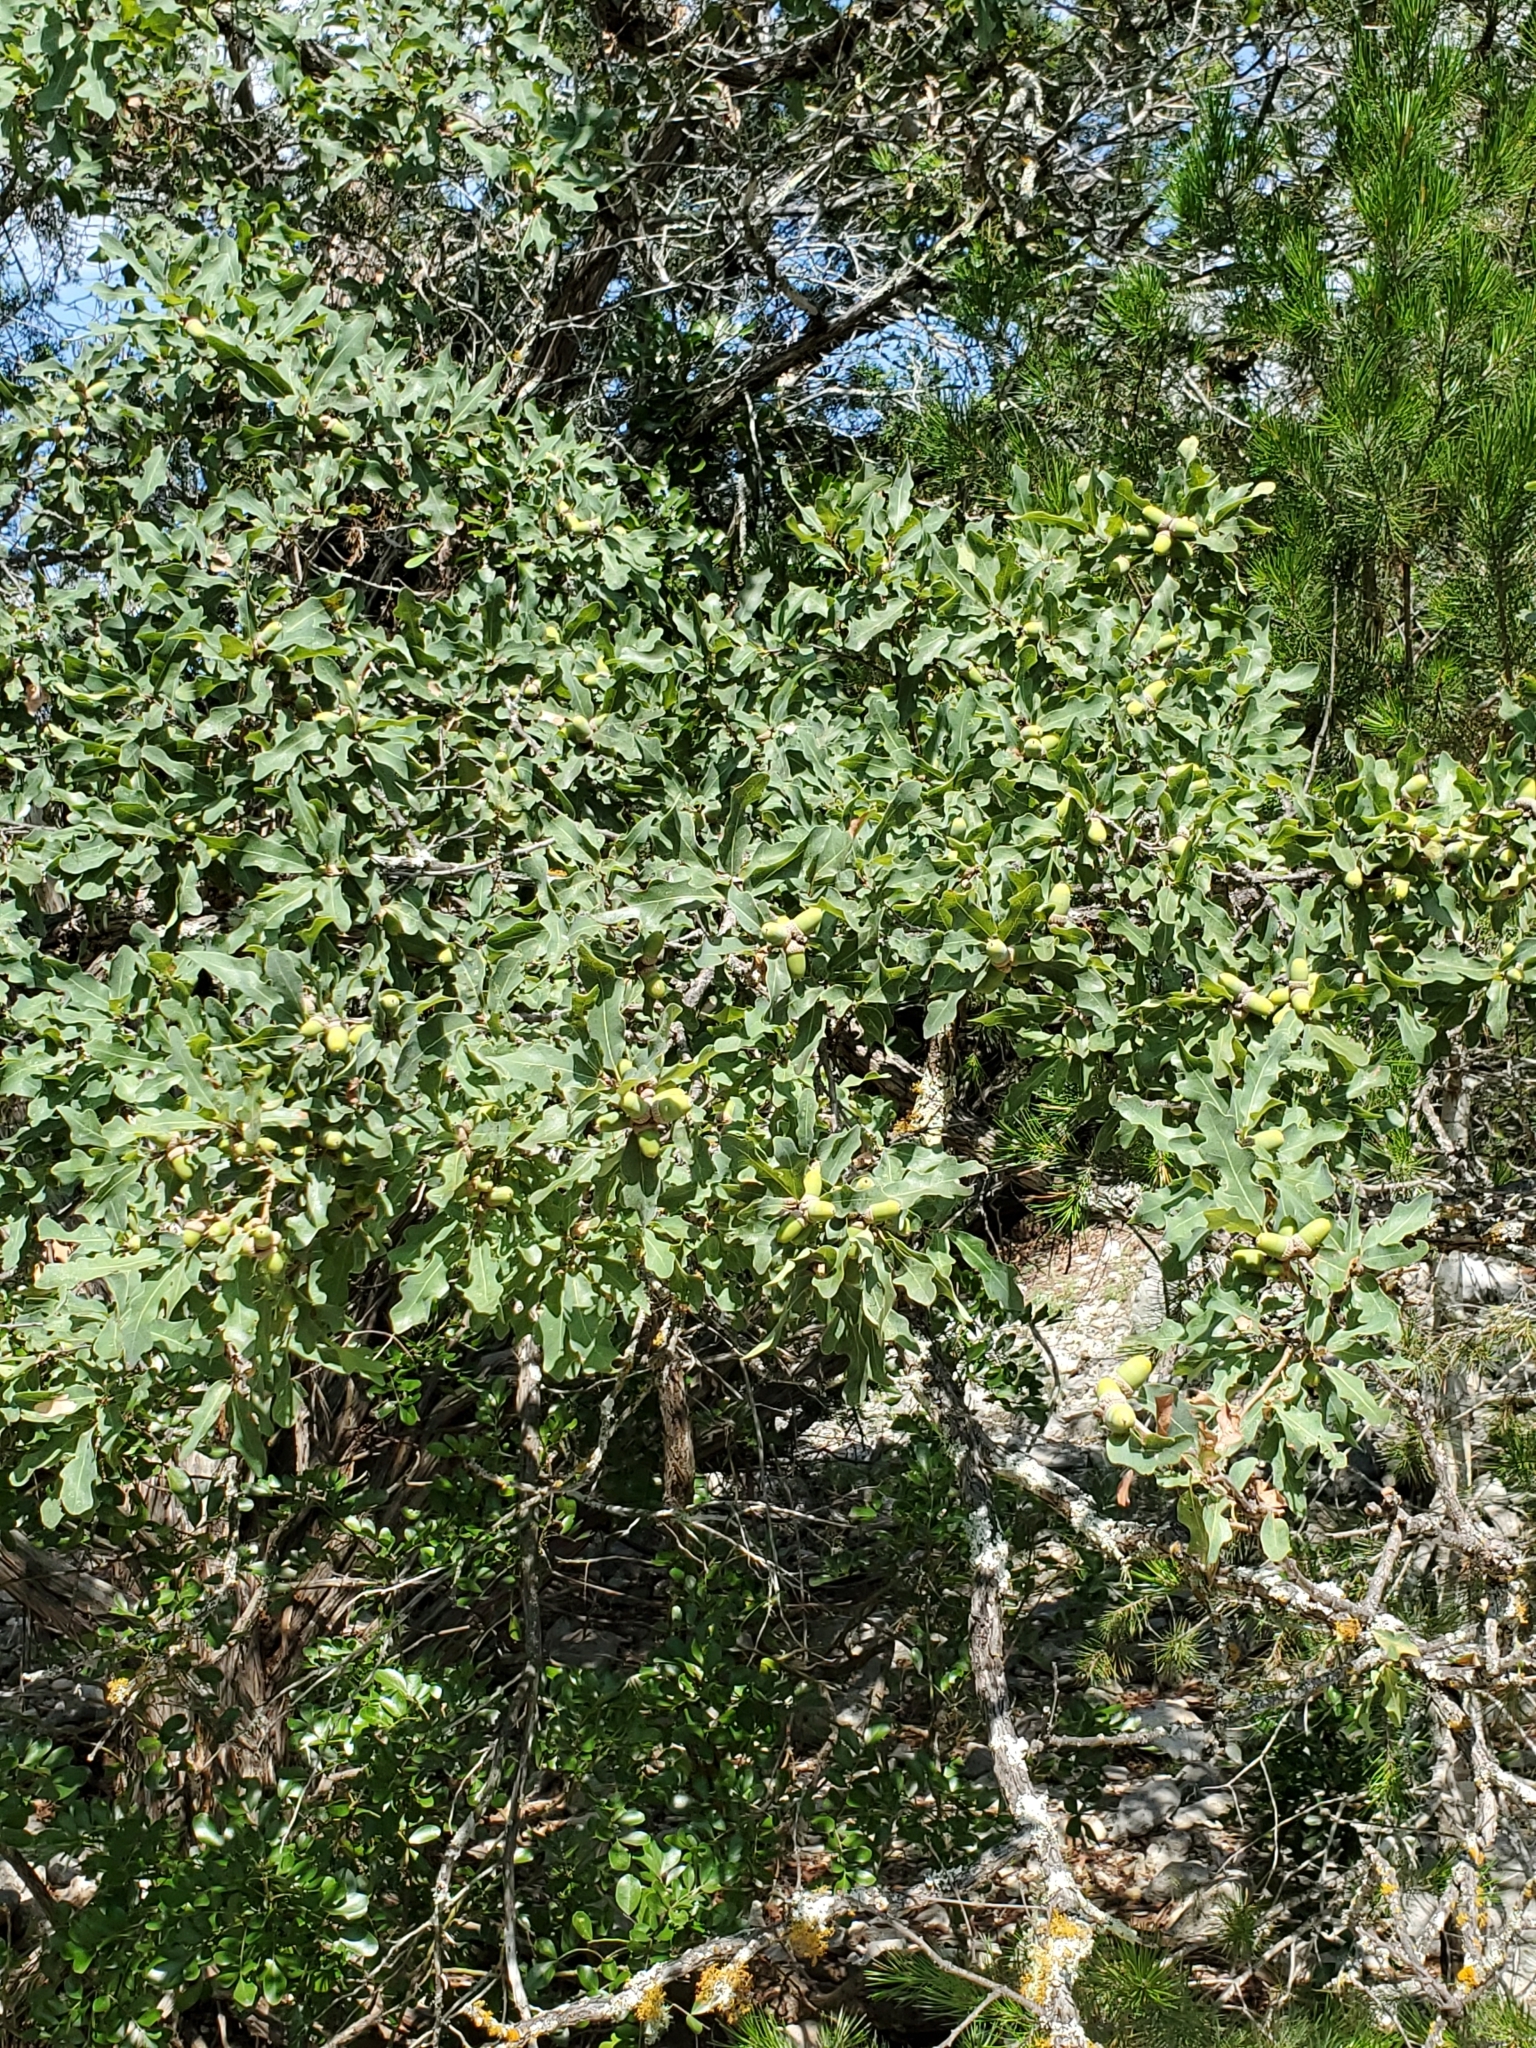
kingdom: Plantae
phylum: Tracheophyta
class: Magnoliopsida
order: Fagales
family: Fagaceae
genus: Quercus
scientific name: Quercus laceyi
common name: Lacey oak
